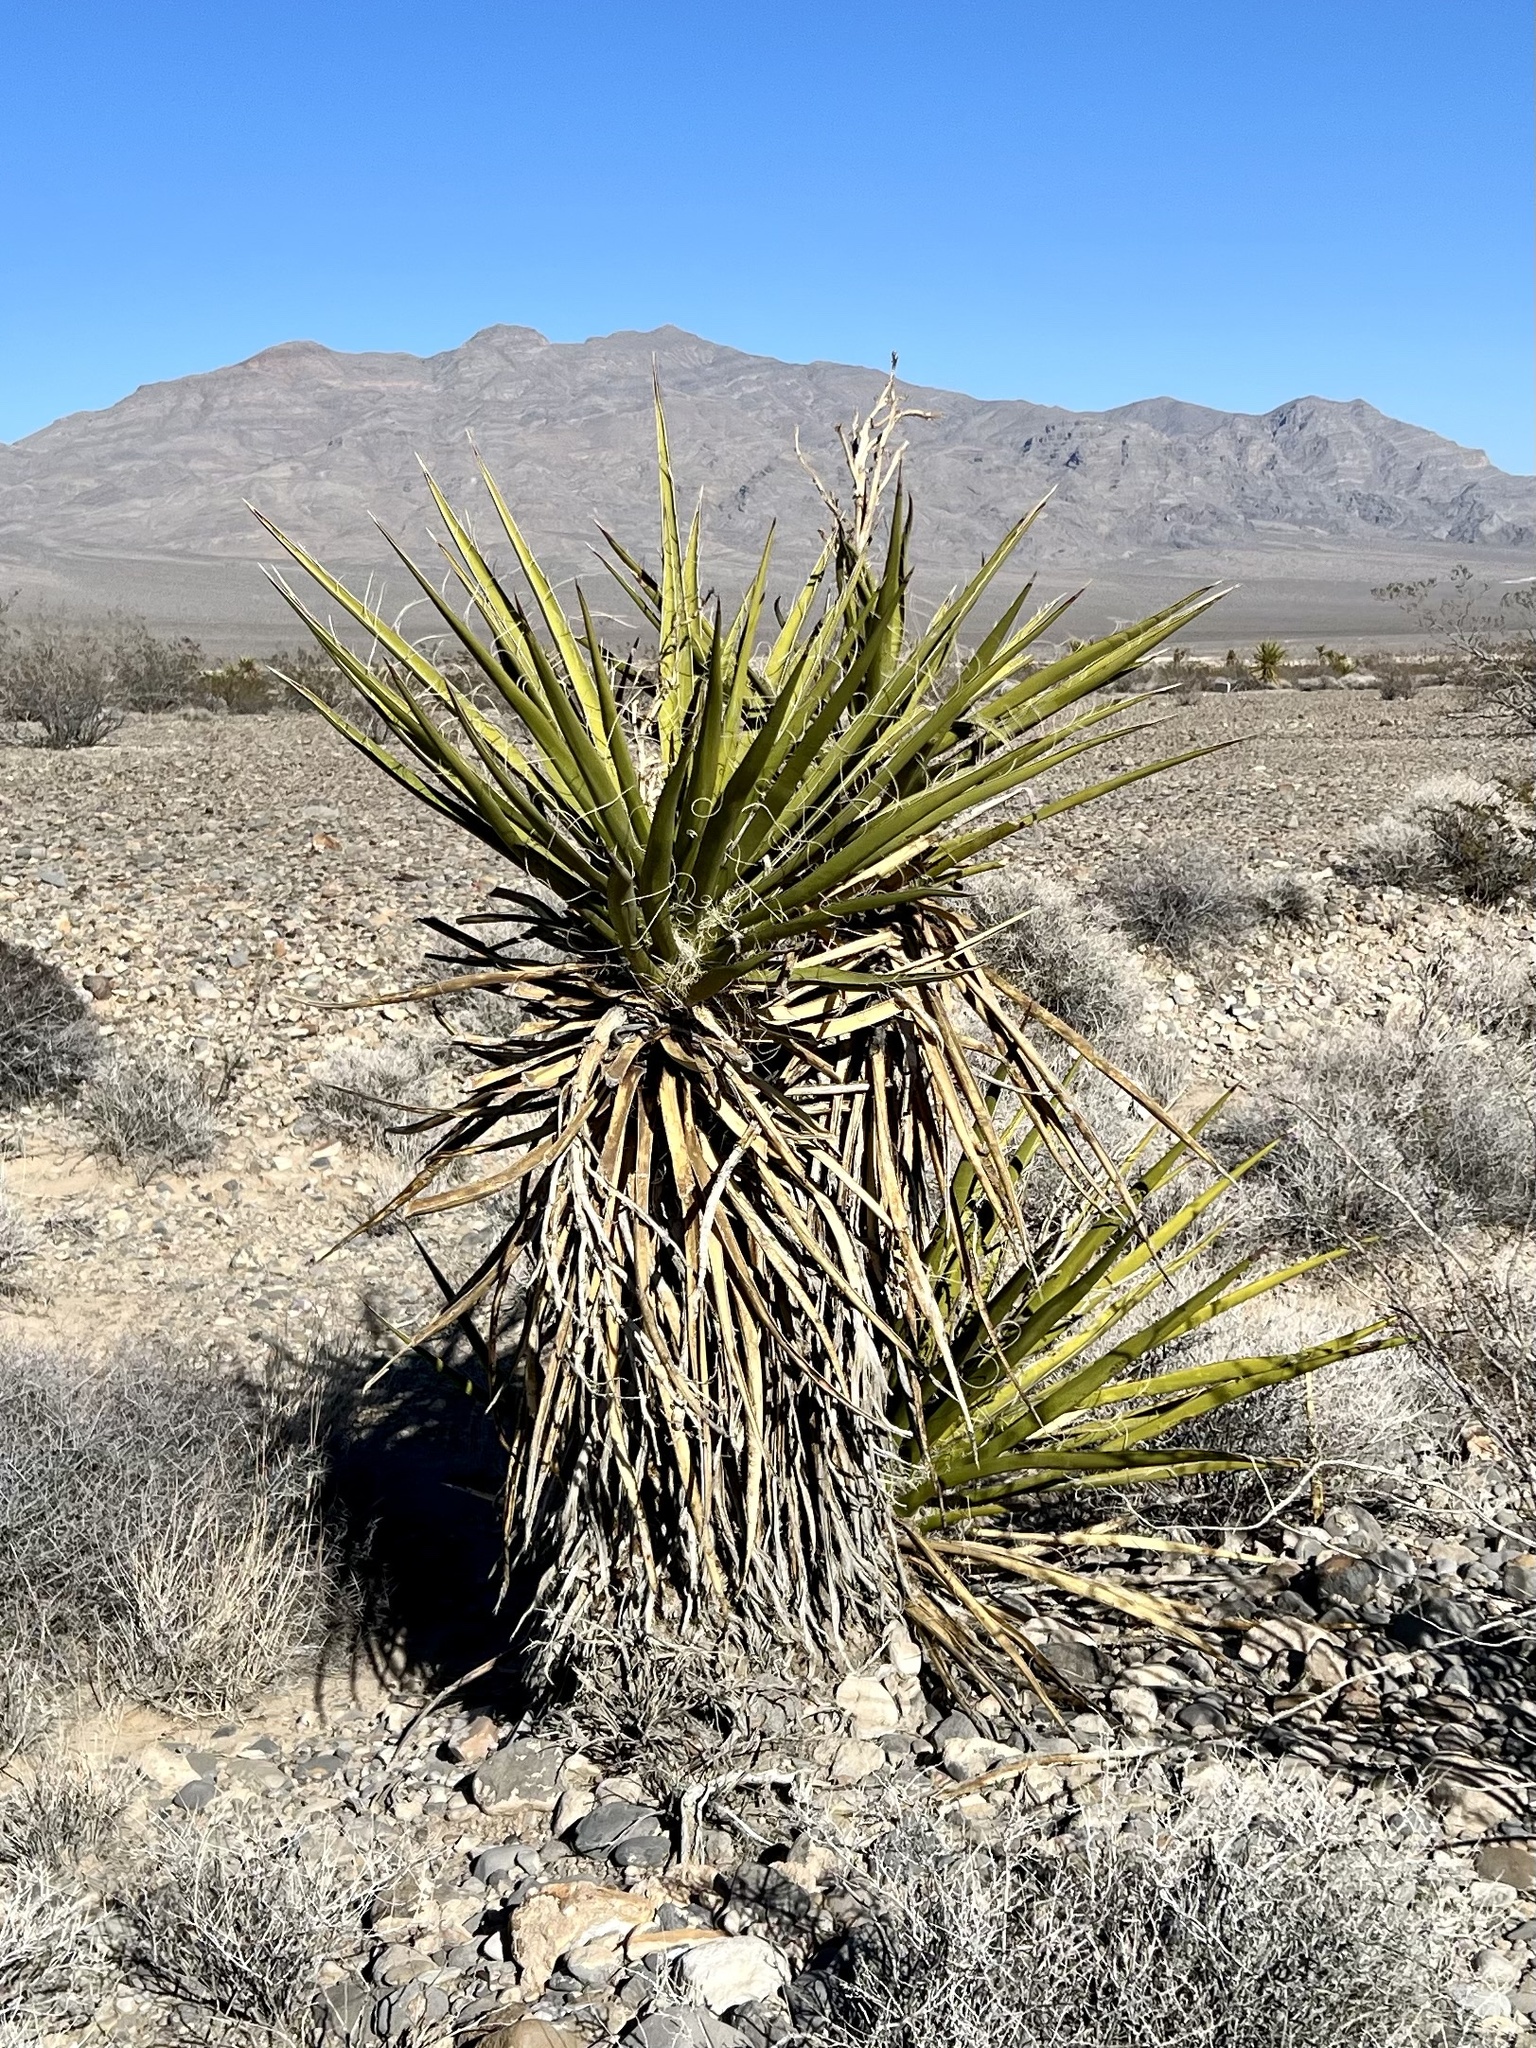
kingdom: Plantae
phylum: Tracheophyta
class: Liliopsida
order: Asparagales
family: Asparagaceae
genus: Yucca
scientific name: Yucca schidigera
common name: Mojave yucca
